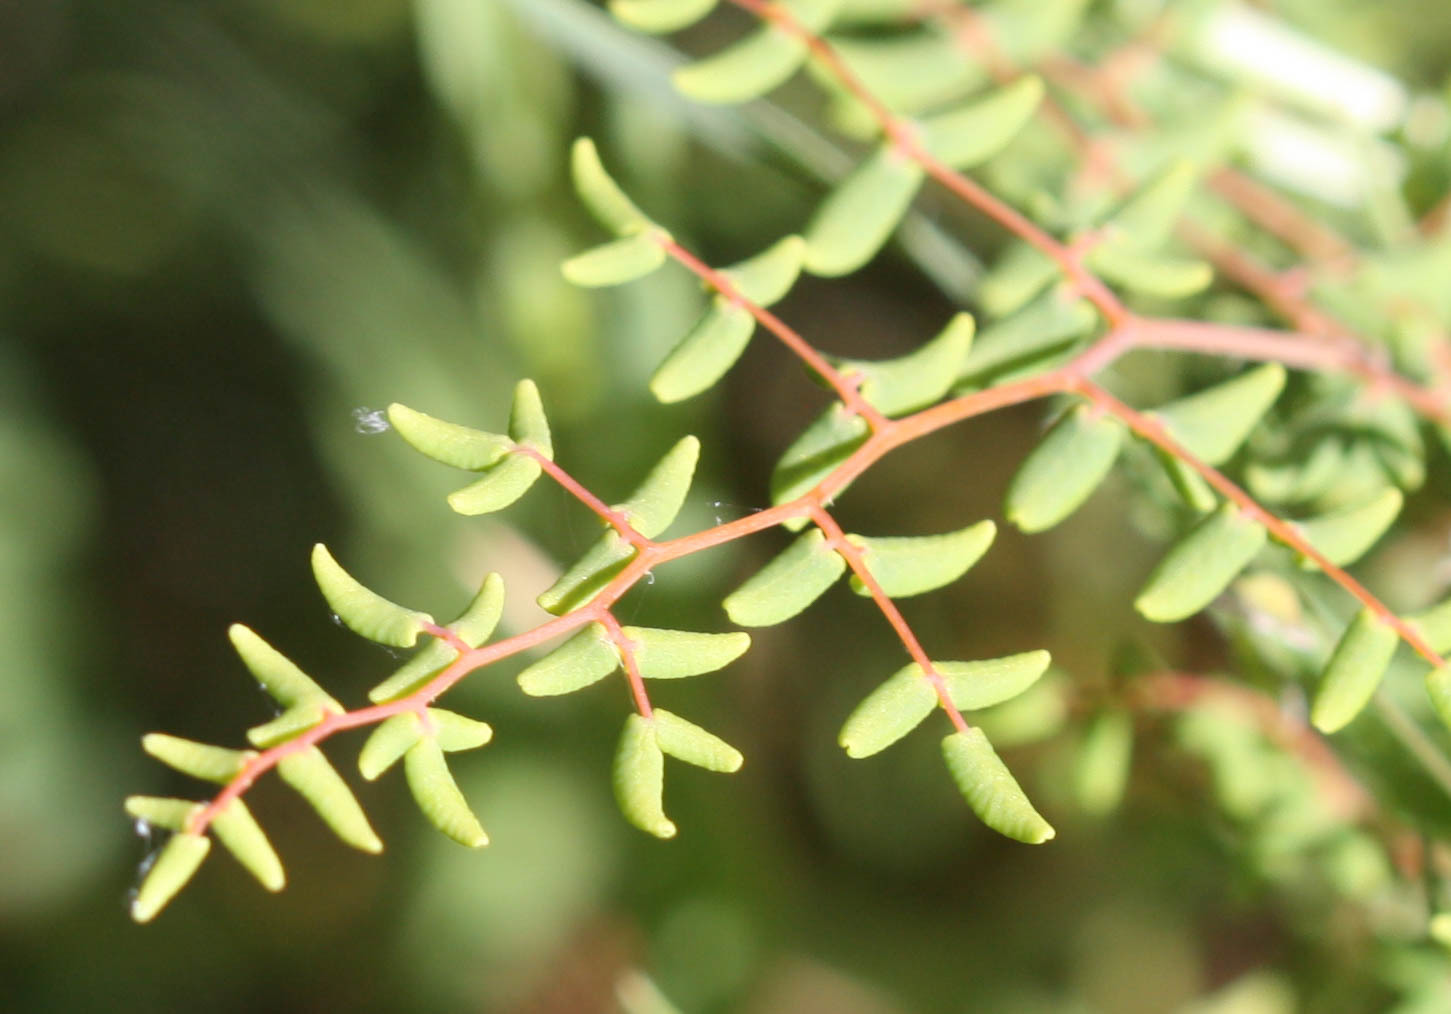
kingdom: Plantae
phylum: Tracheophyta
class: Polypodiopsida
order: Polypodiales
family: Pteridaceae
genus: Pellaea
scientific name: Pellaea andromedifolia
